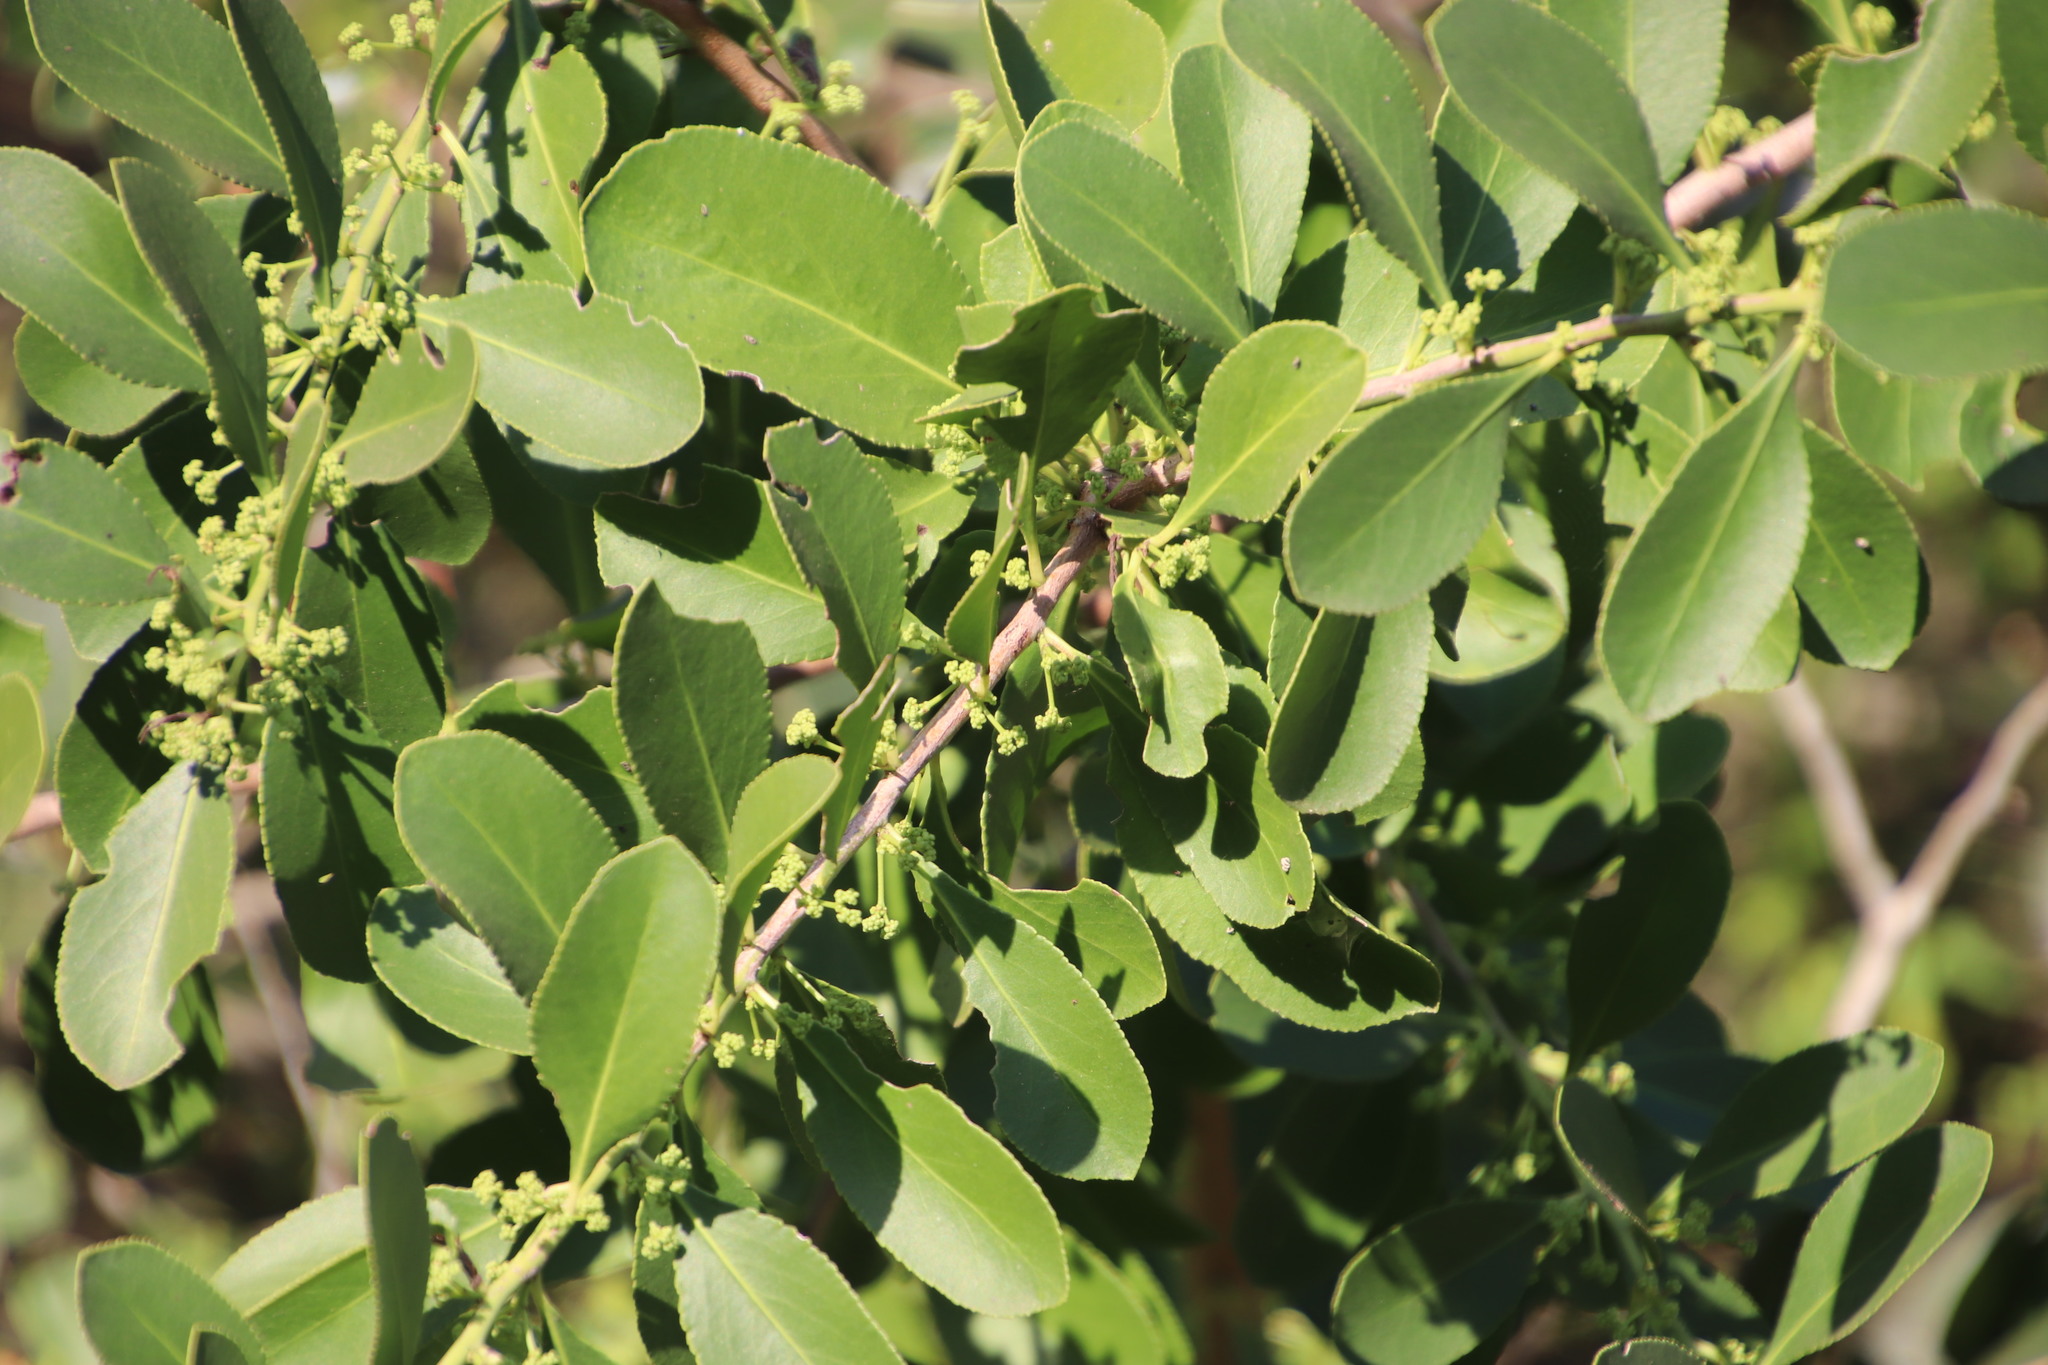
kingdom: Plantae
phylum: Tracheophyta
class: Magnoliopsida
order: Celastrales
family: Celastraceae
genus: Gymnosporia
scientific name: Gymnosporia senegalensis
